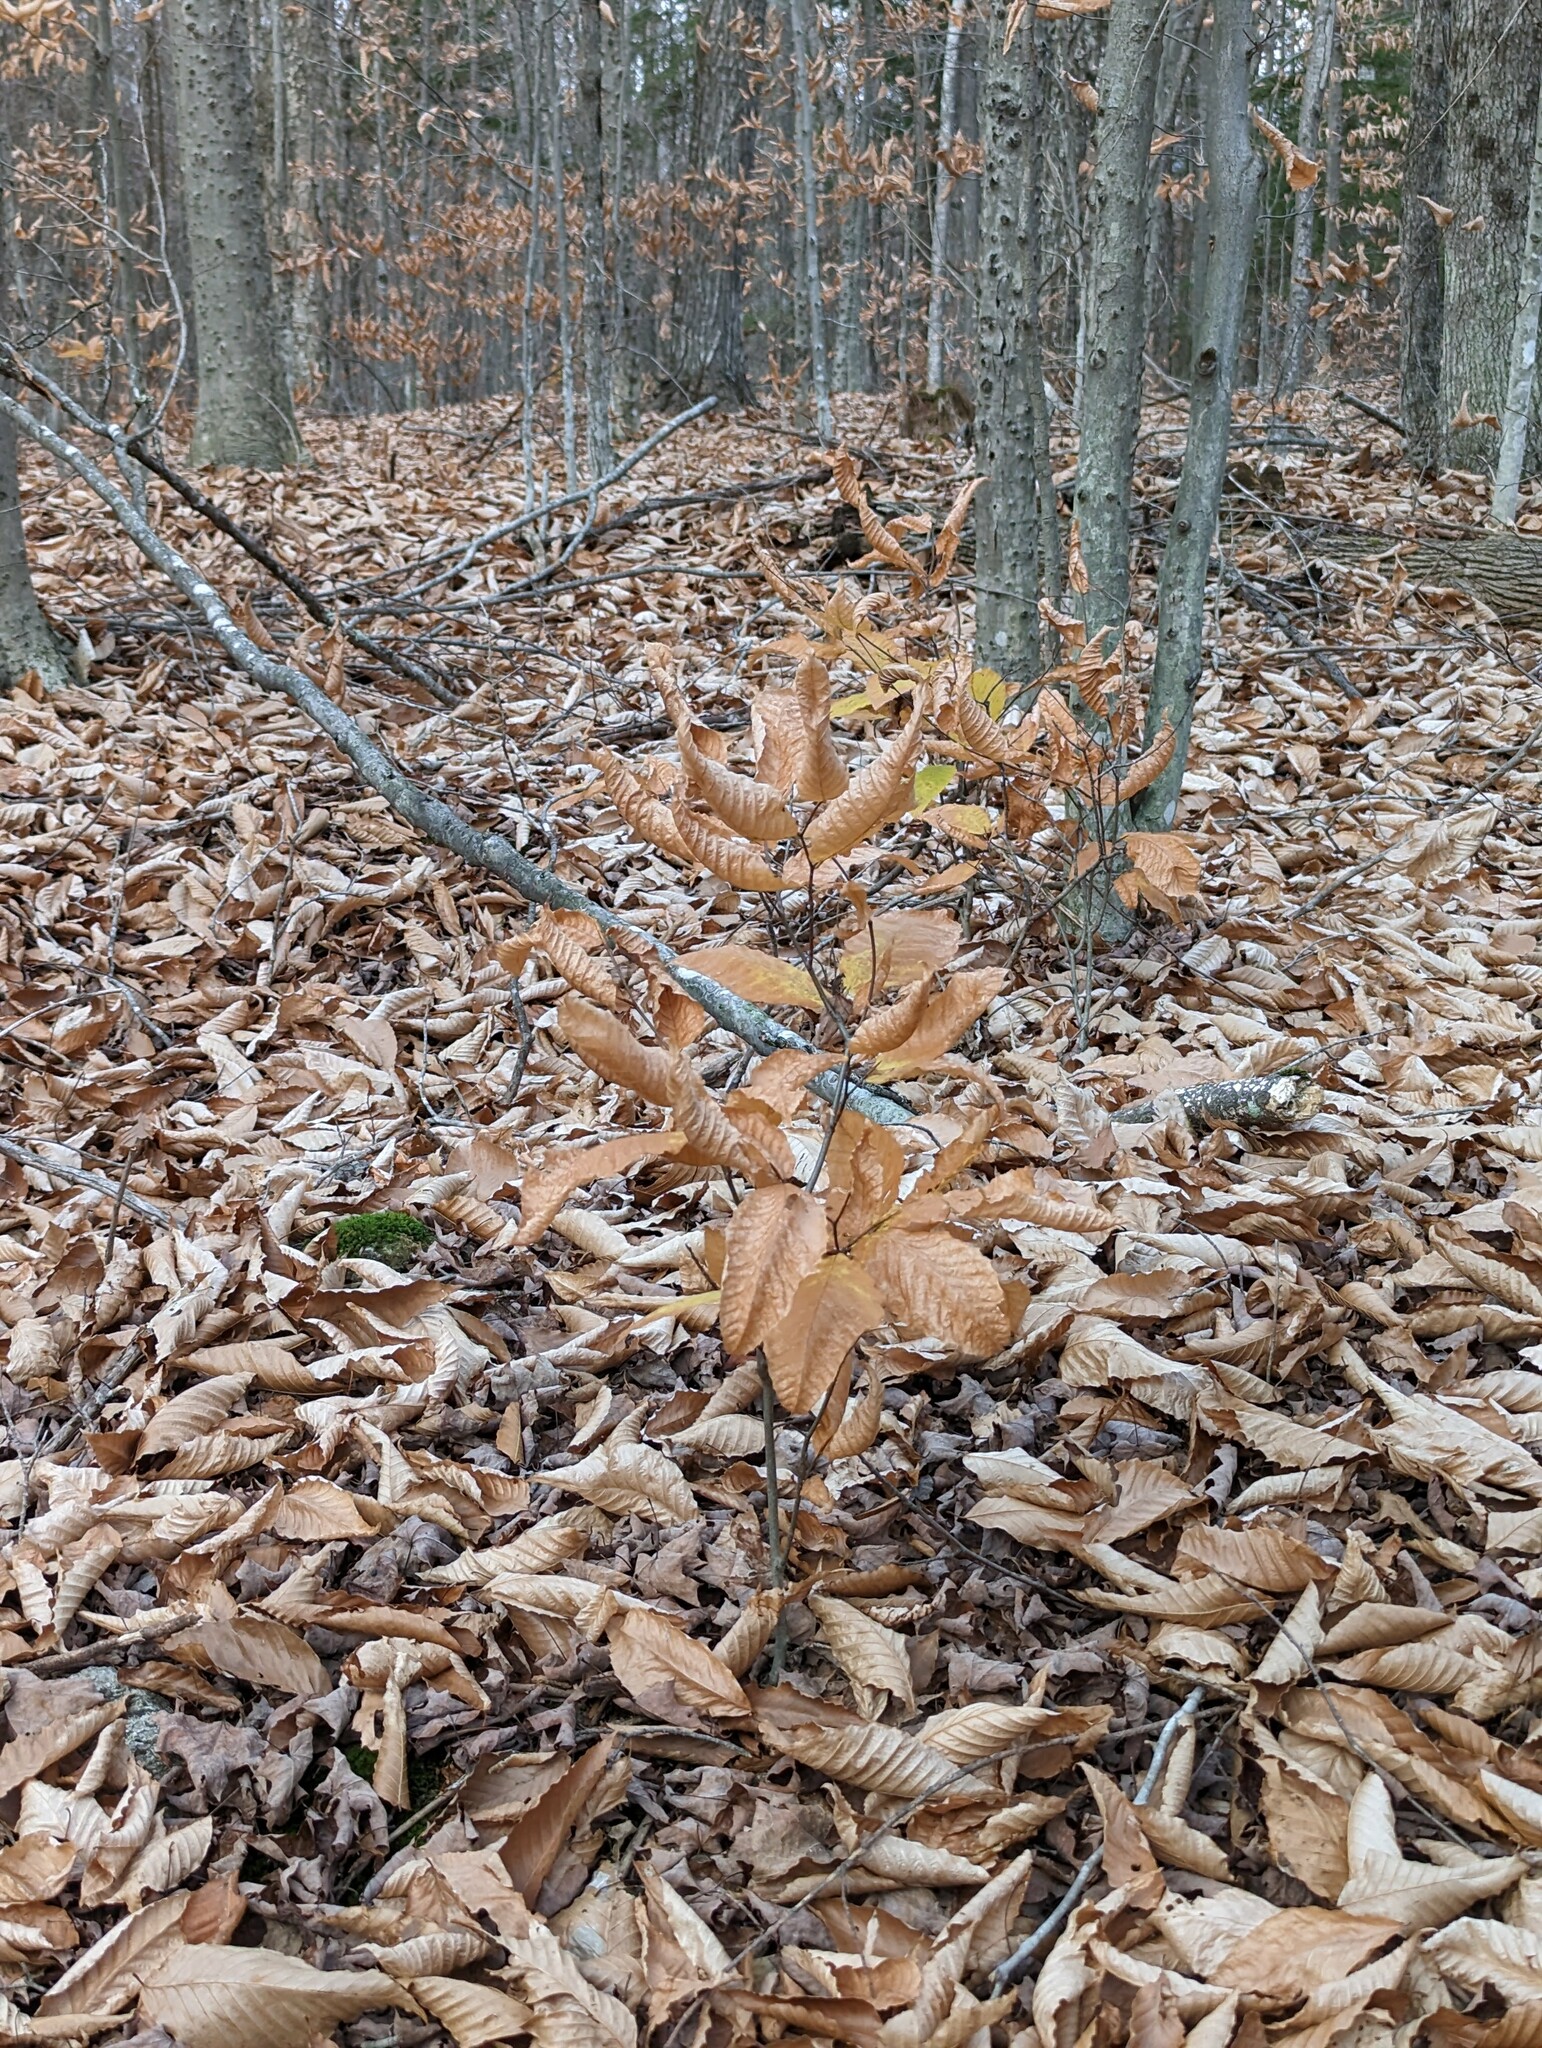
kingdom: Plantae
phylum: Tracheophyta
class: Magnoliopsida
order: Fagales
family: Fagaceae
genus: Fagus
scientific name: Fagus grandifolia
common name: American beech
